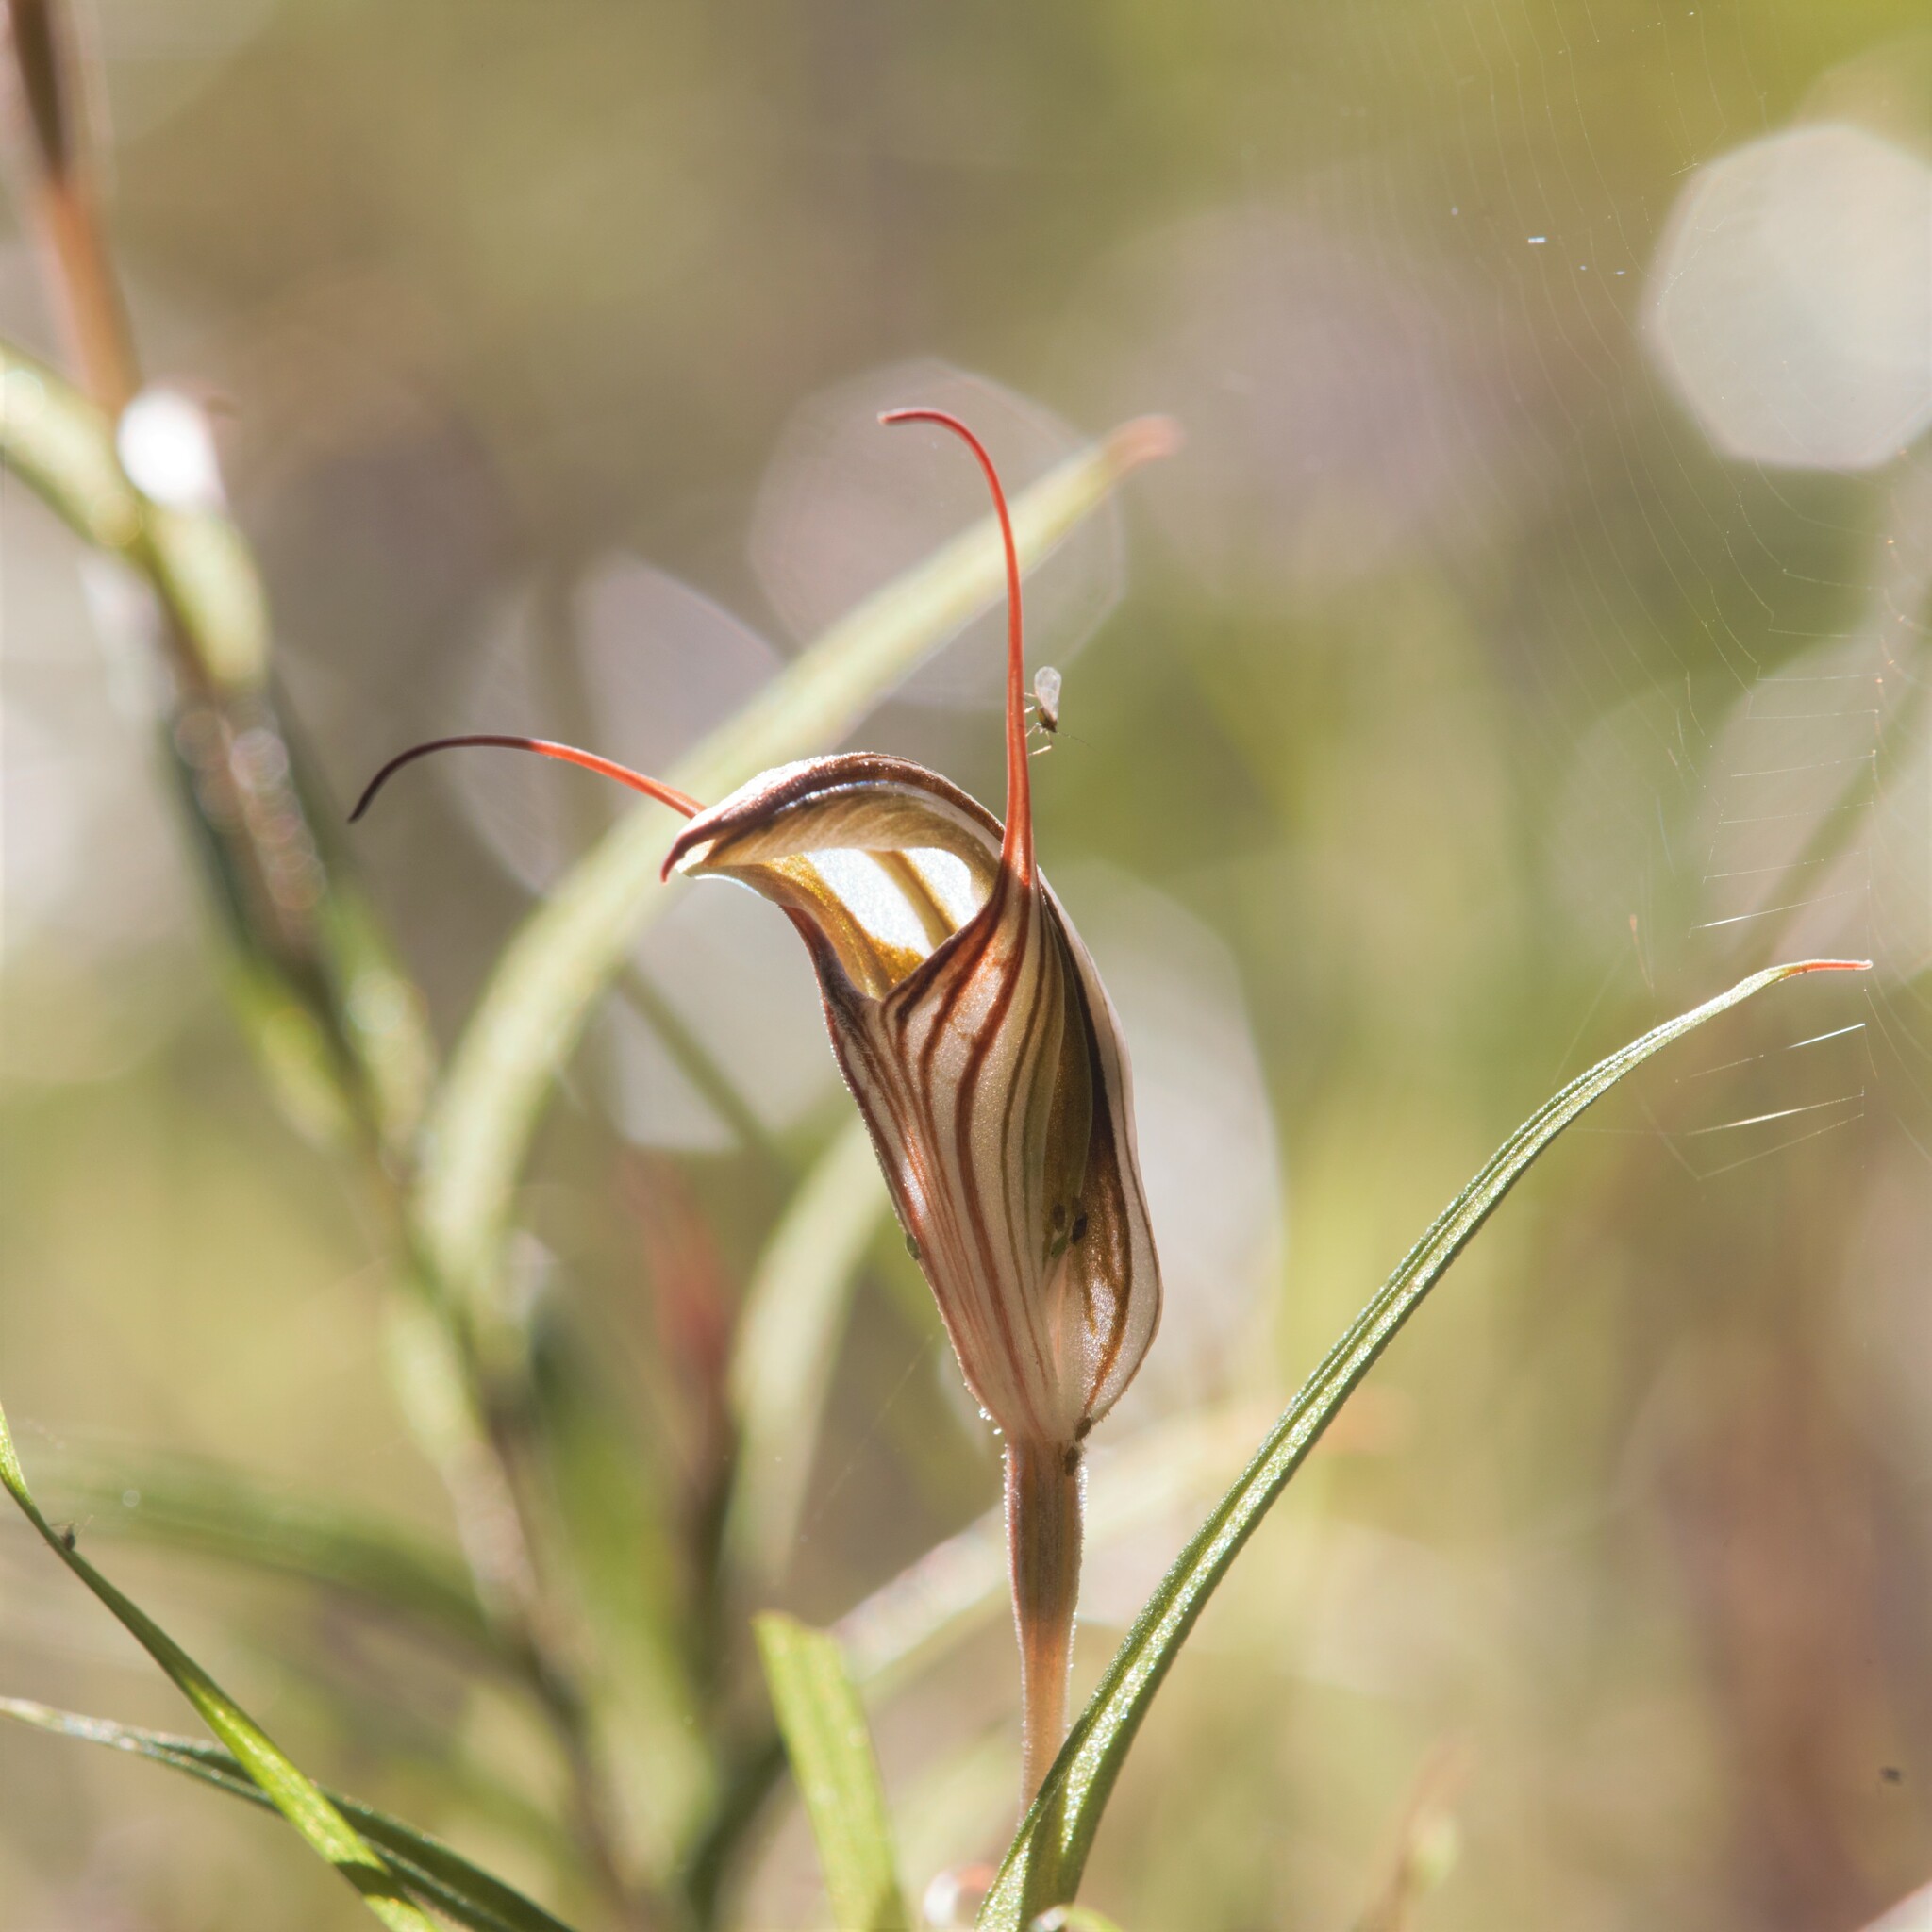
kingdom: Plantae
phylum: Tracheophyta
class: Liliopsida
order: Asparagales
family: Orchidaceae
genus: Pterostylis
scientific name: Pterostylis aspera
